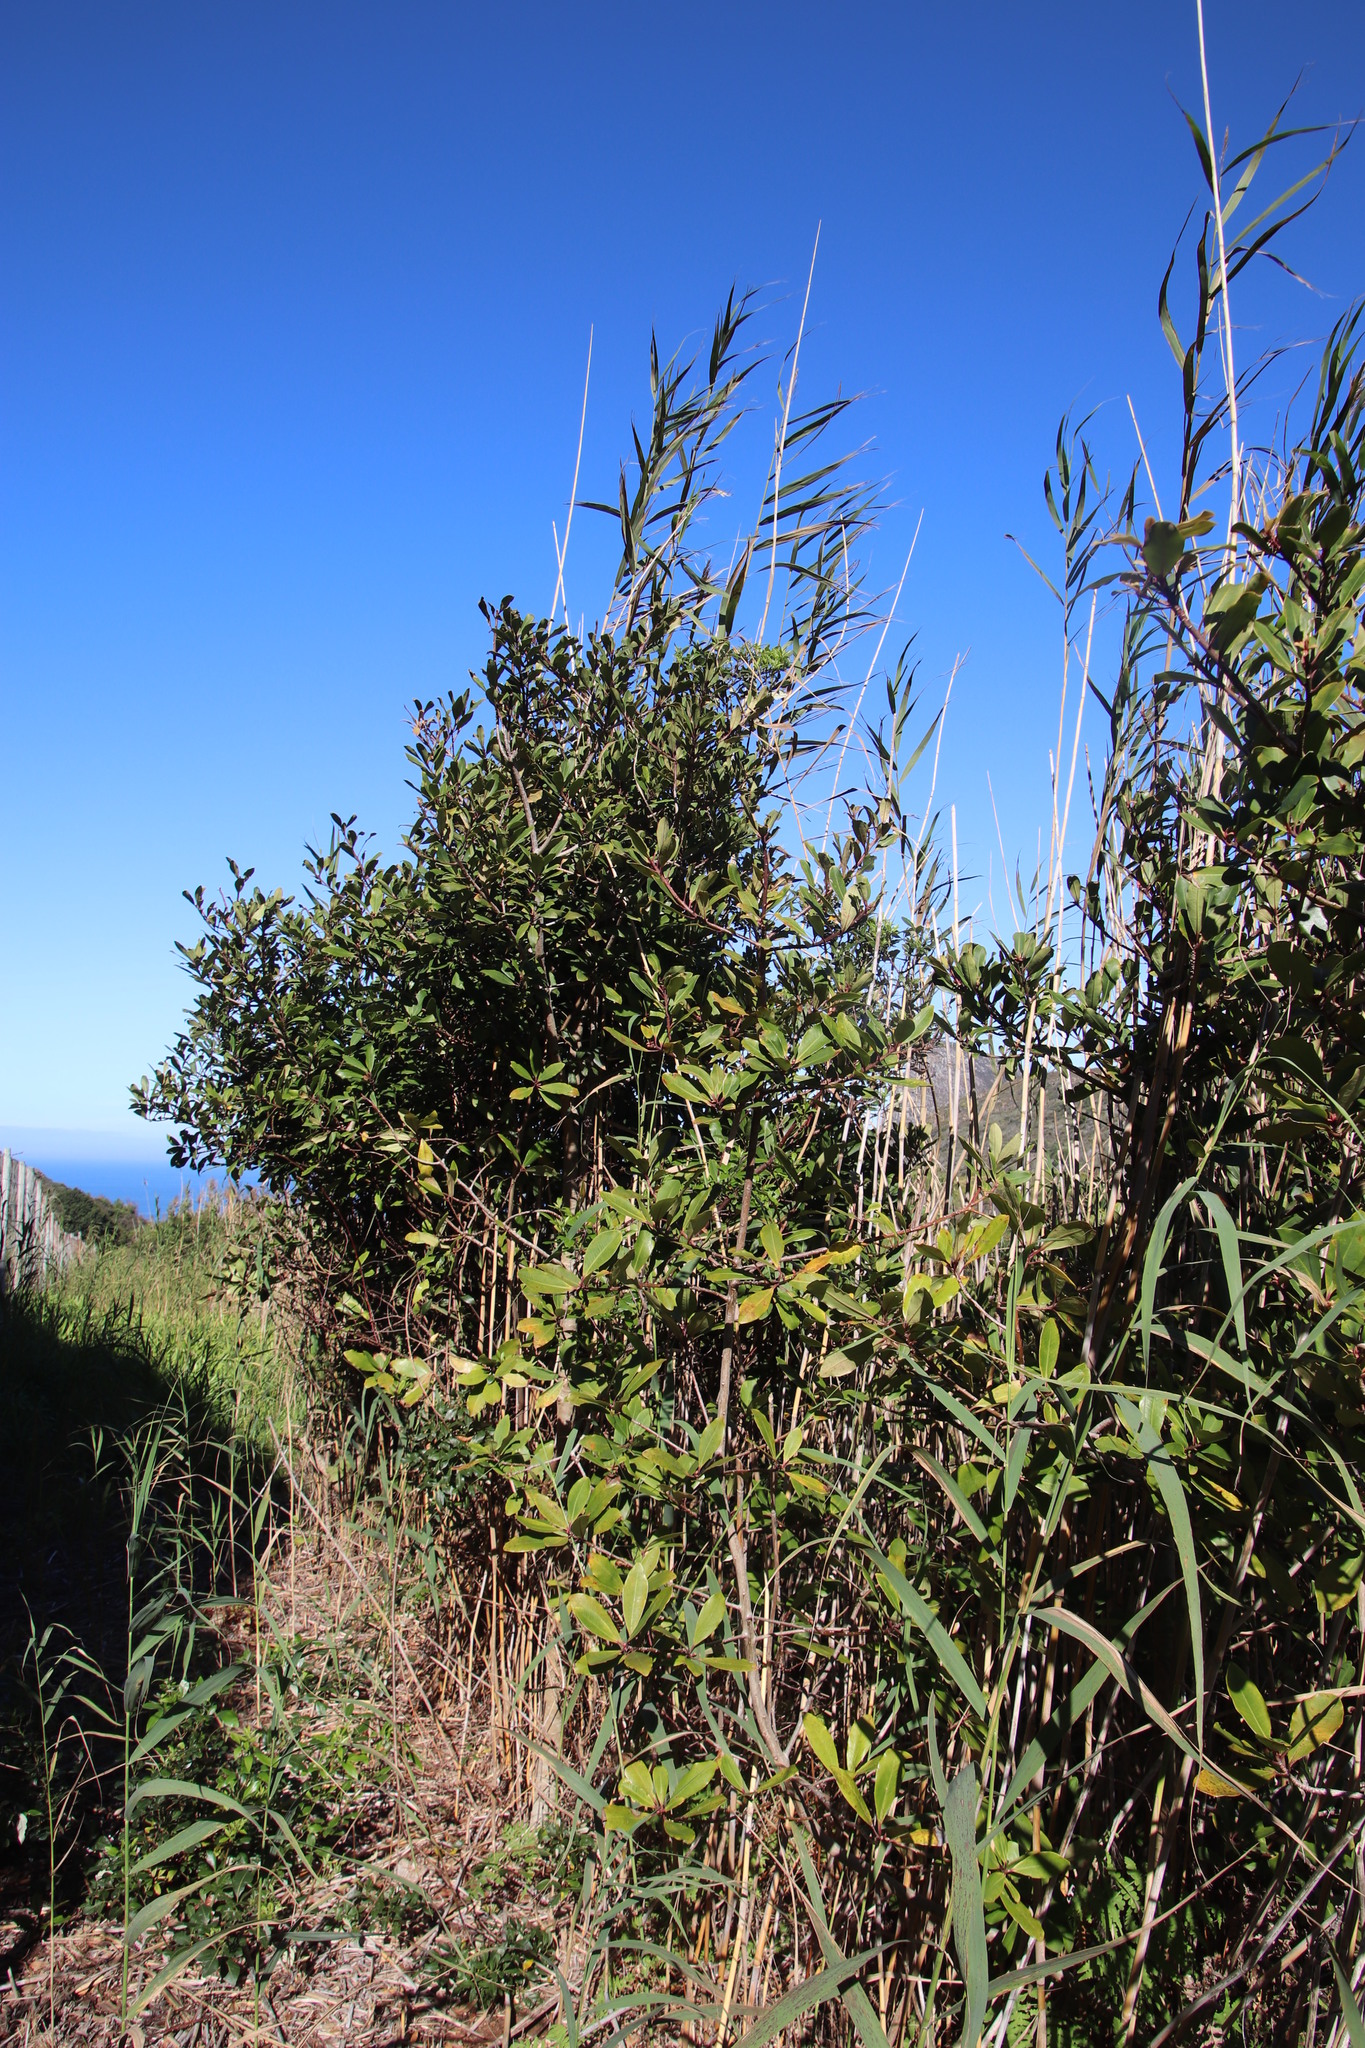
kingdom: Plantae
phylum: Tracheophyta
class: Magnoliopsida
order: Ericales
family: Primulaceae
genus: Myrsine
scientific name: Myrsine melanophloeos
